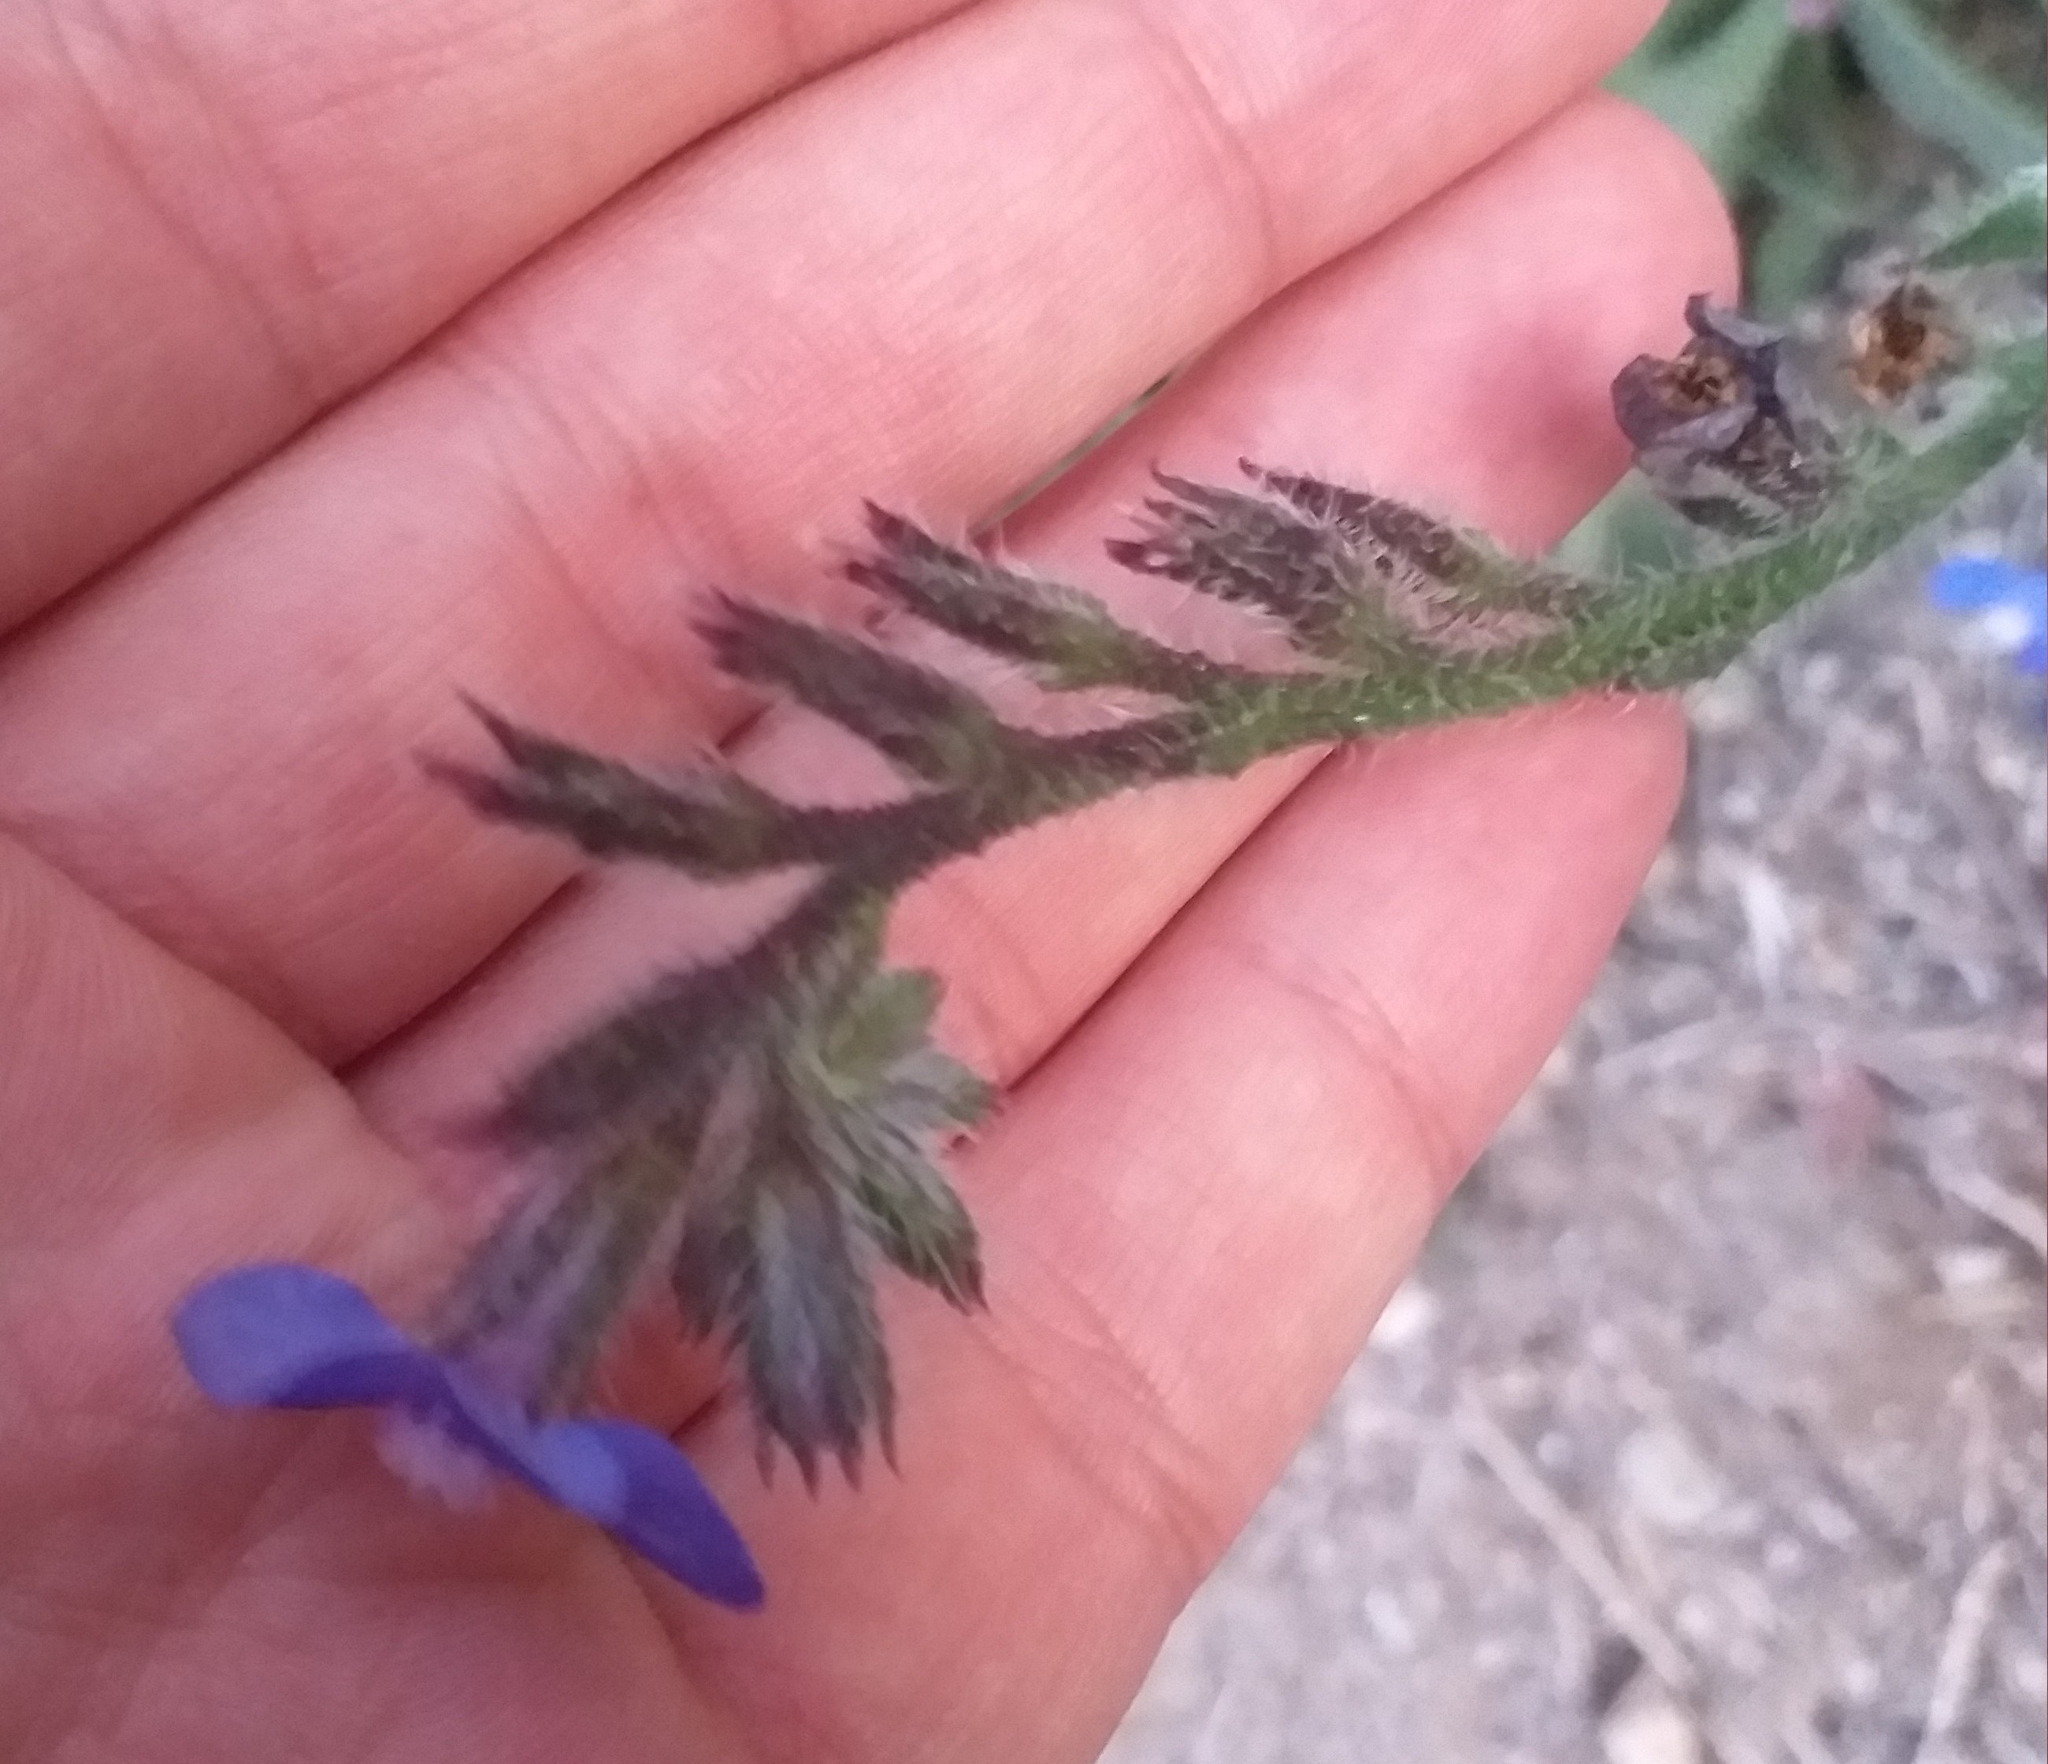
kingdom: Plantae
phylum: Tracheophyta
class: Magnoliopsida
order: Boraginales
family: Boraginaceae
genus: Anchusa
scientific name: Anchusa azurea
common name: Garden anchusa
